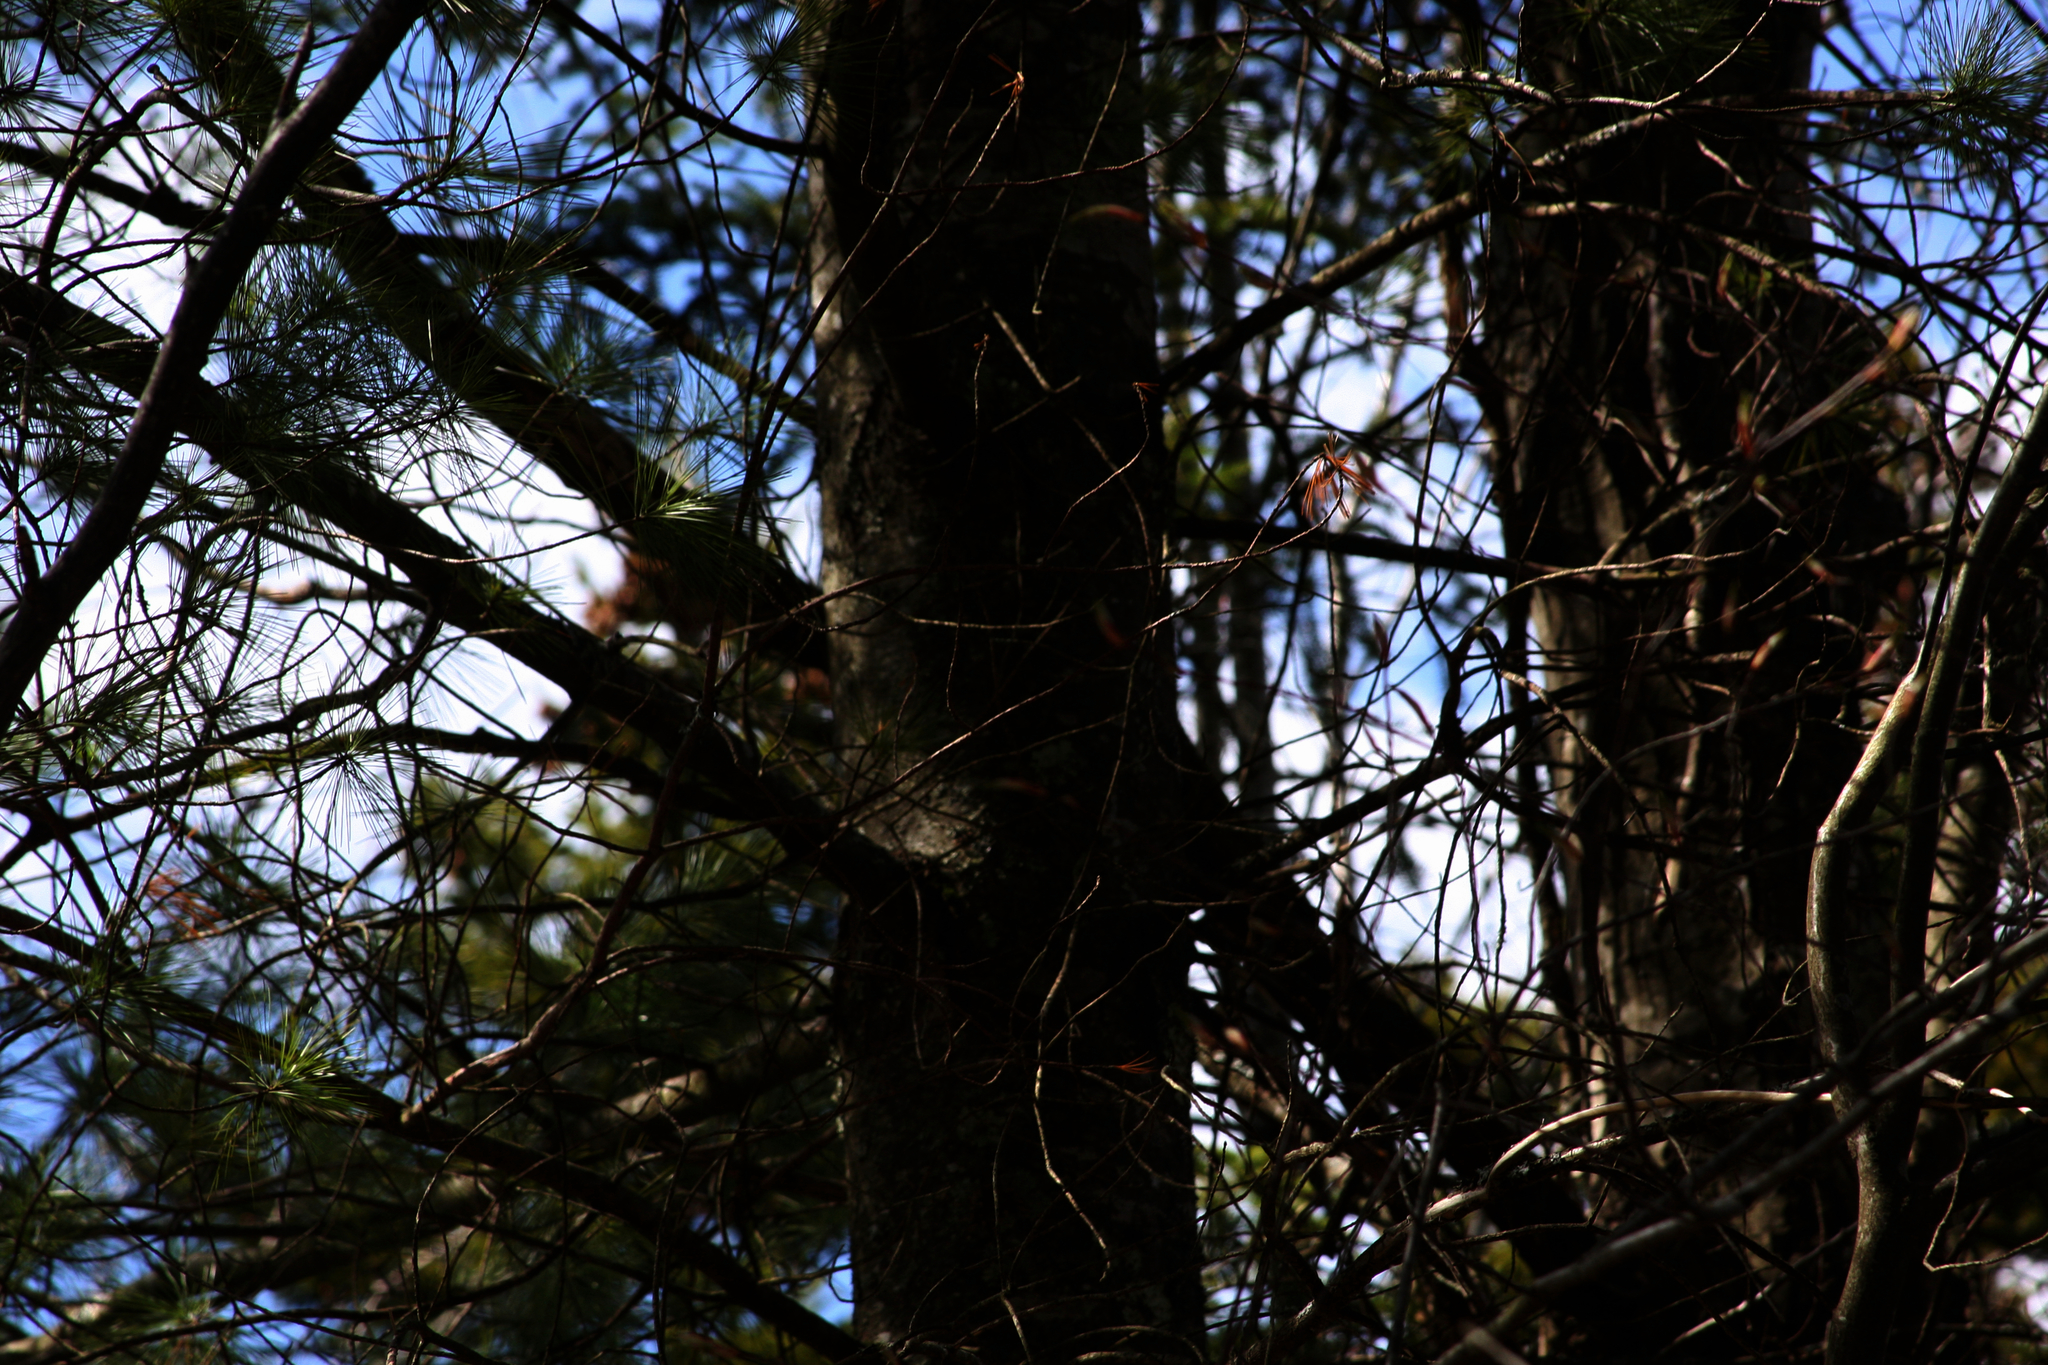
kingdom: Plantae
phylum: Tracheophyta
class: Pinopsida
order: Pinales
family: Pinaceae
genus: Pinus
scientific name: Pinus strobus
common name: Weymouth pine
